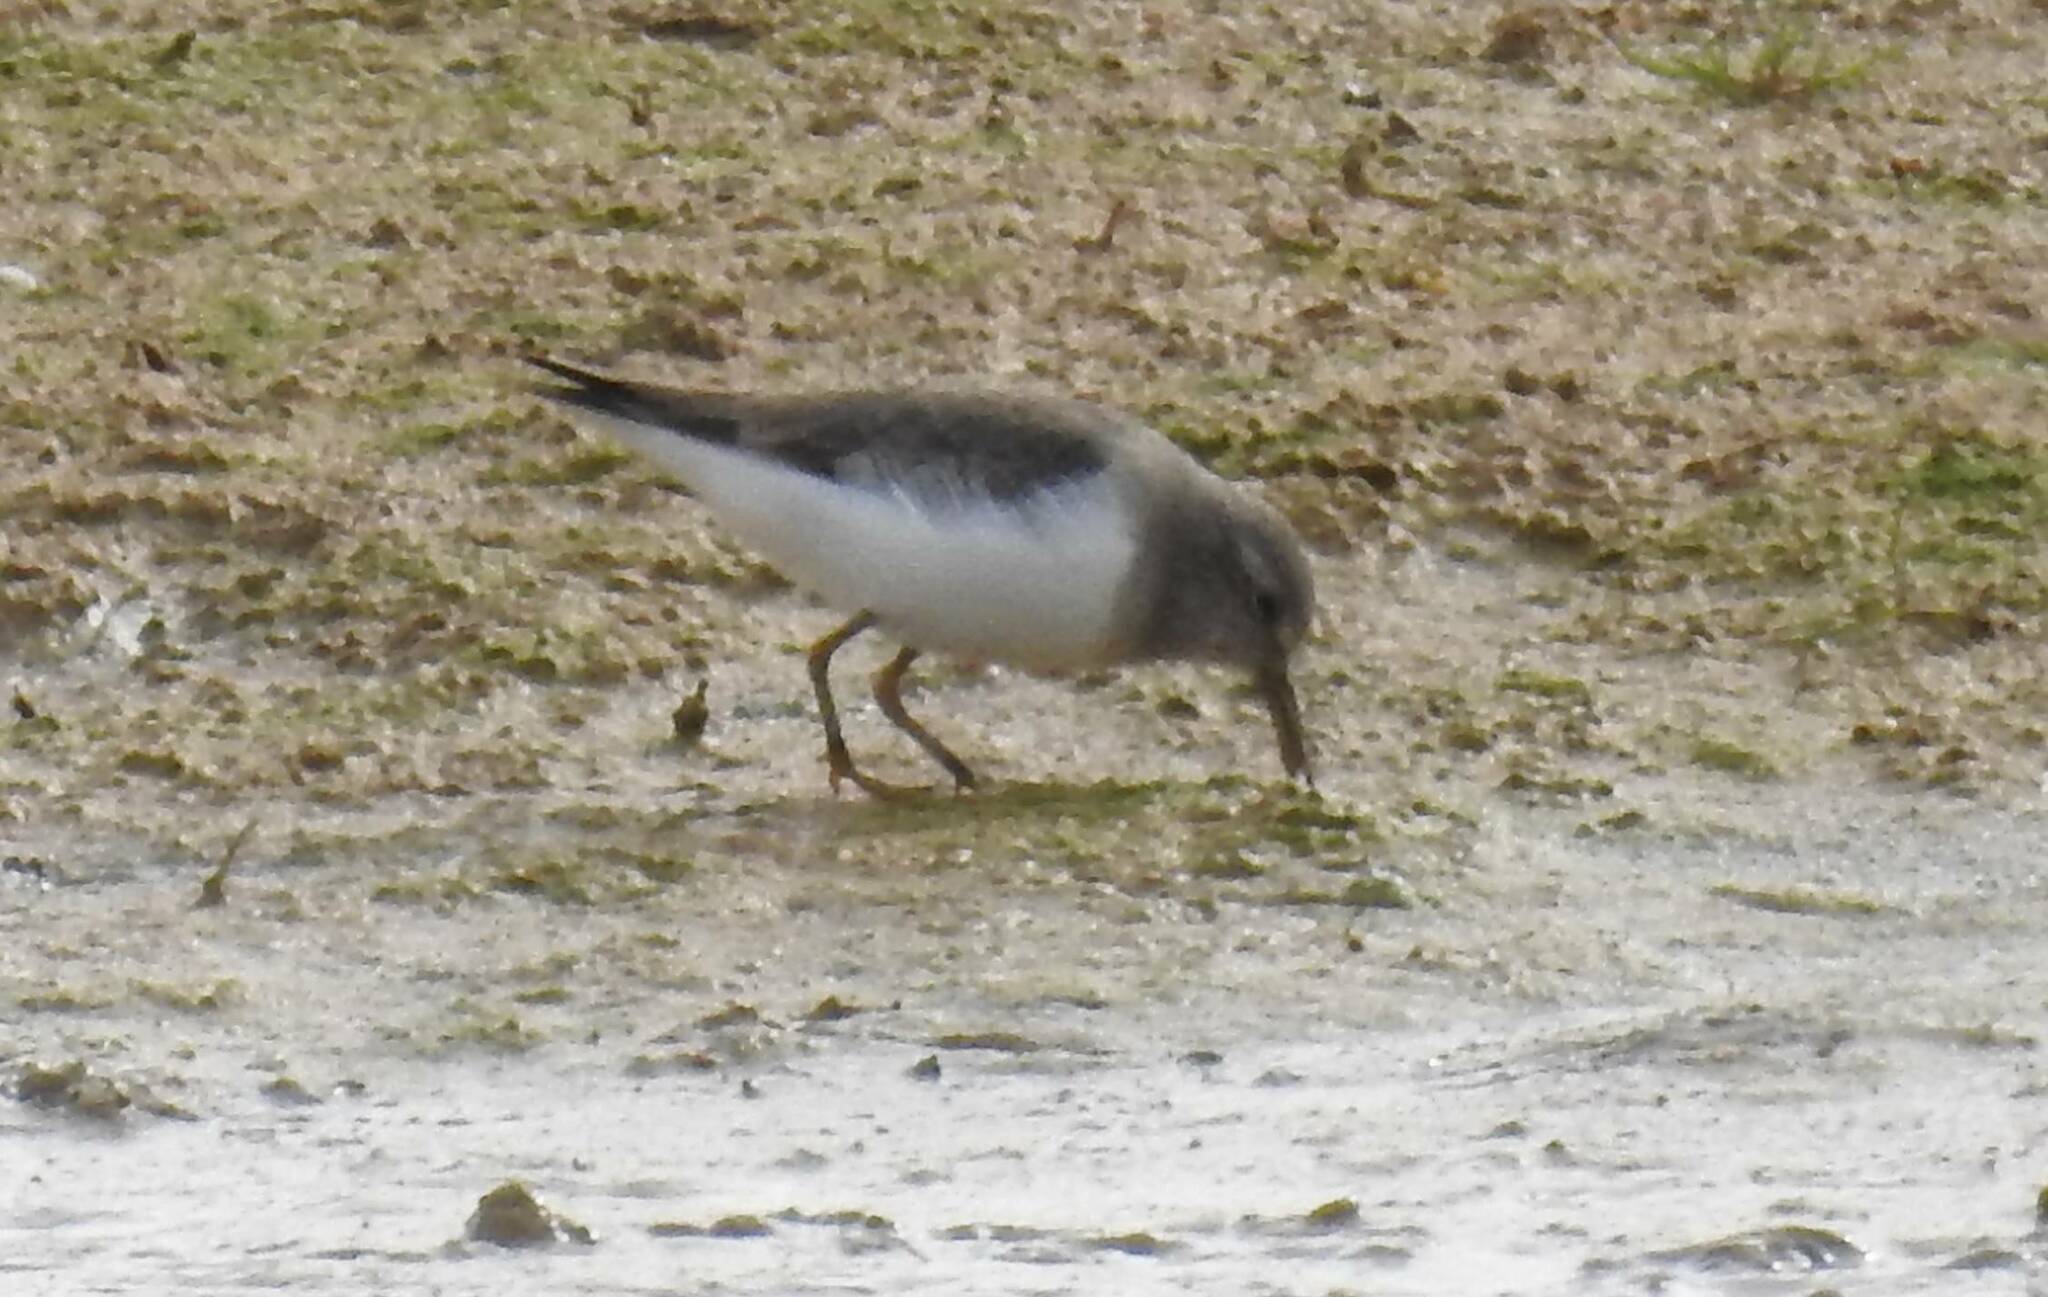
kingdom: Animalia
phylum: Chordata
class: Aves
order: Charadriiformes
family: Scolopacidae
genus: Calidris
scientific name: Calidris temminckii
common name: Temminck's stint
